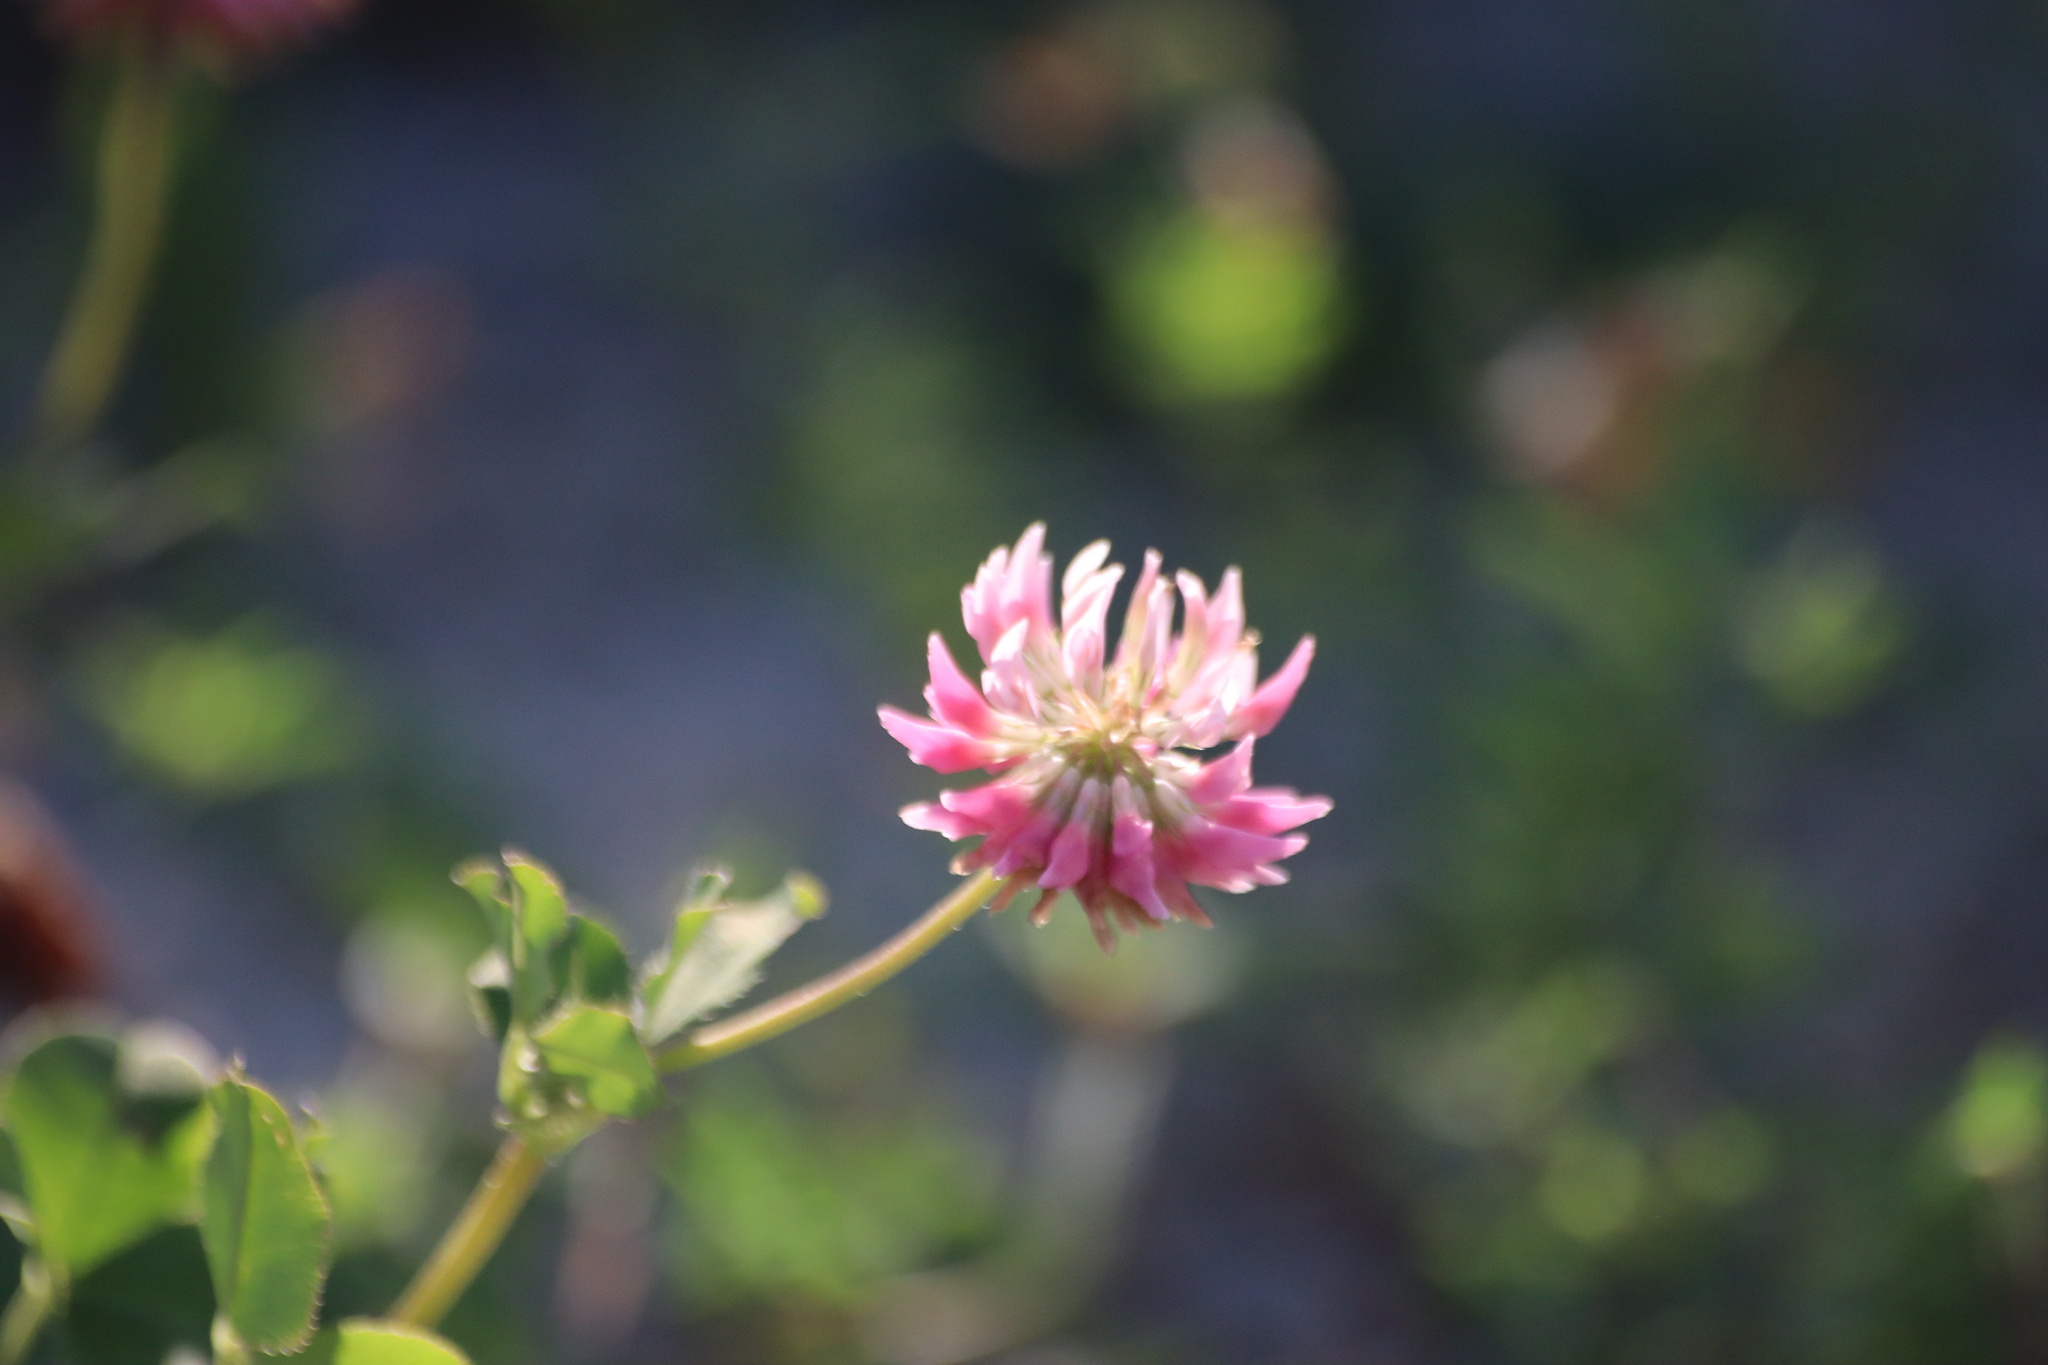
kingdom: Plantae
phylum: Tracheophyta
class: Magnoliopsida
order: Fabales
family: Fabaceae
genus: Trifolium
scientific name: Trifolium hybridum
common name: Alsike clover
